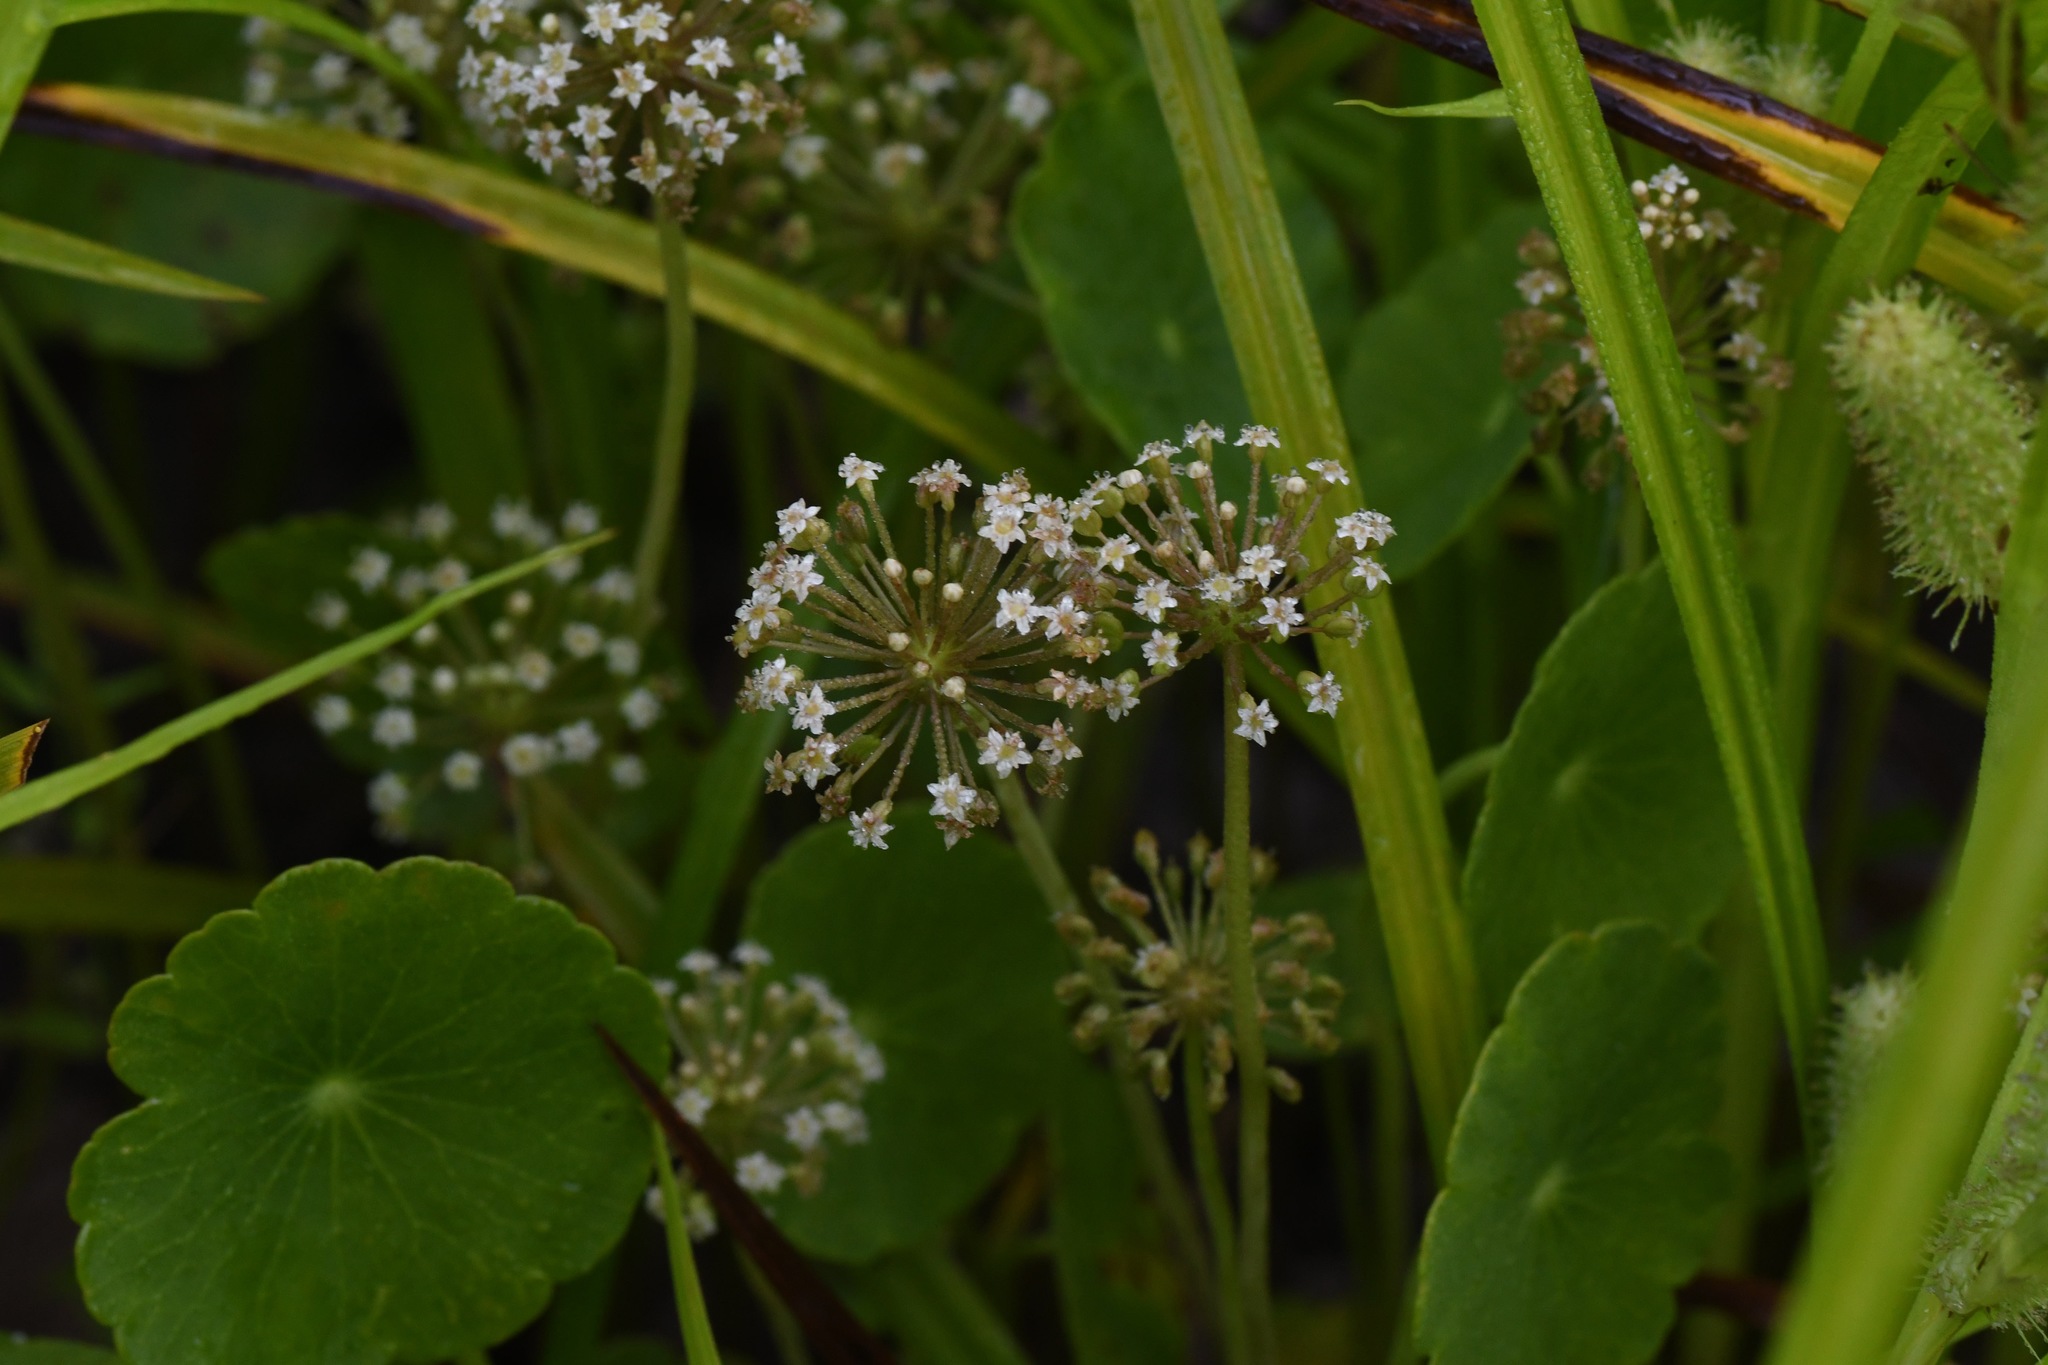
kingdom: Plantae
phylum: Tracheophyta
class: Magnoliopsida
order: Apiales
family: Araliaceae
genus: Hydrocotyle
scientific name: Hydrocotyle umbellata
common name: Water pennywort
